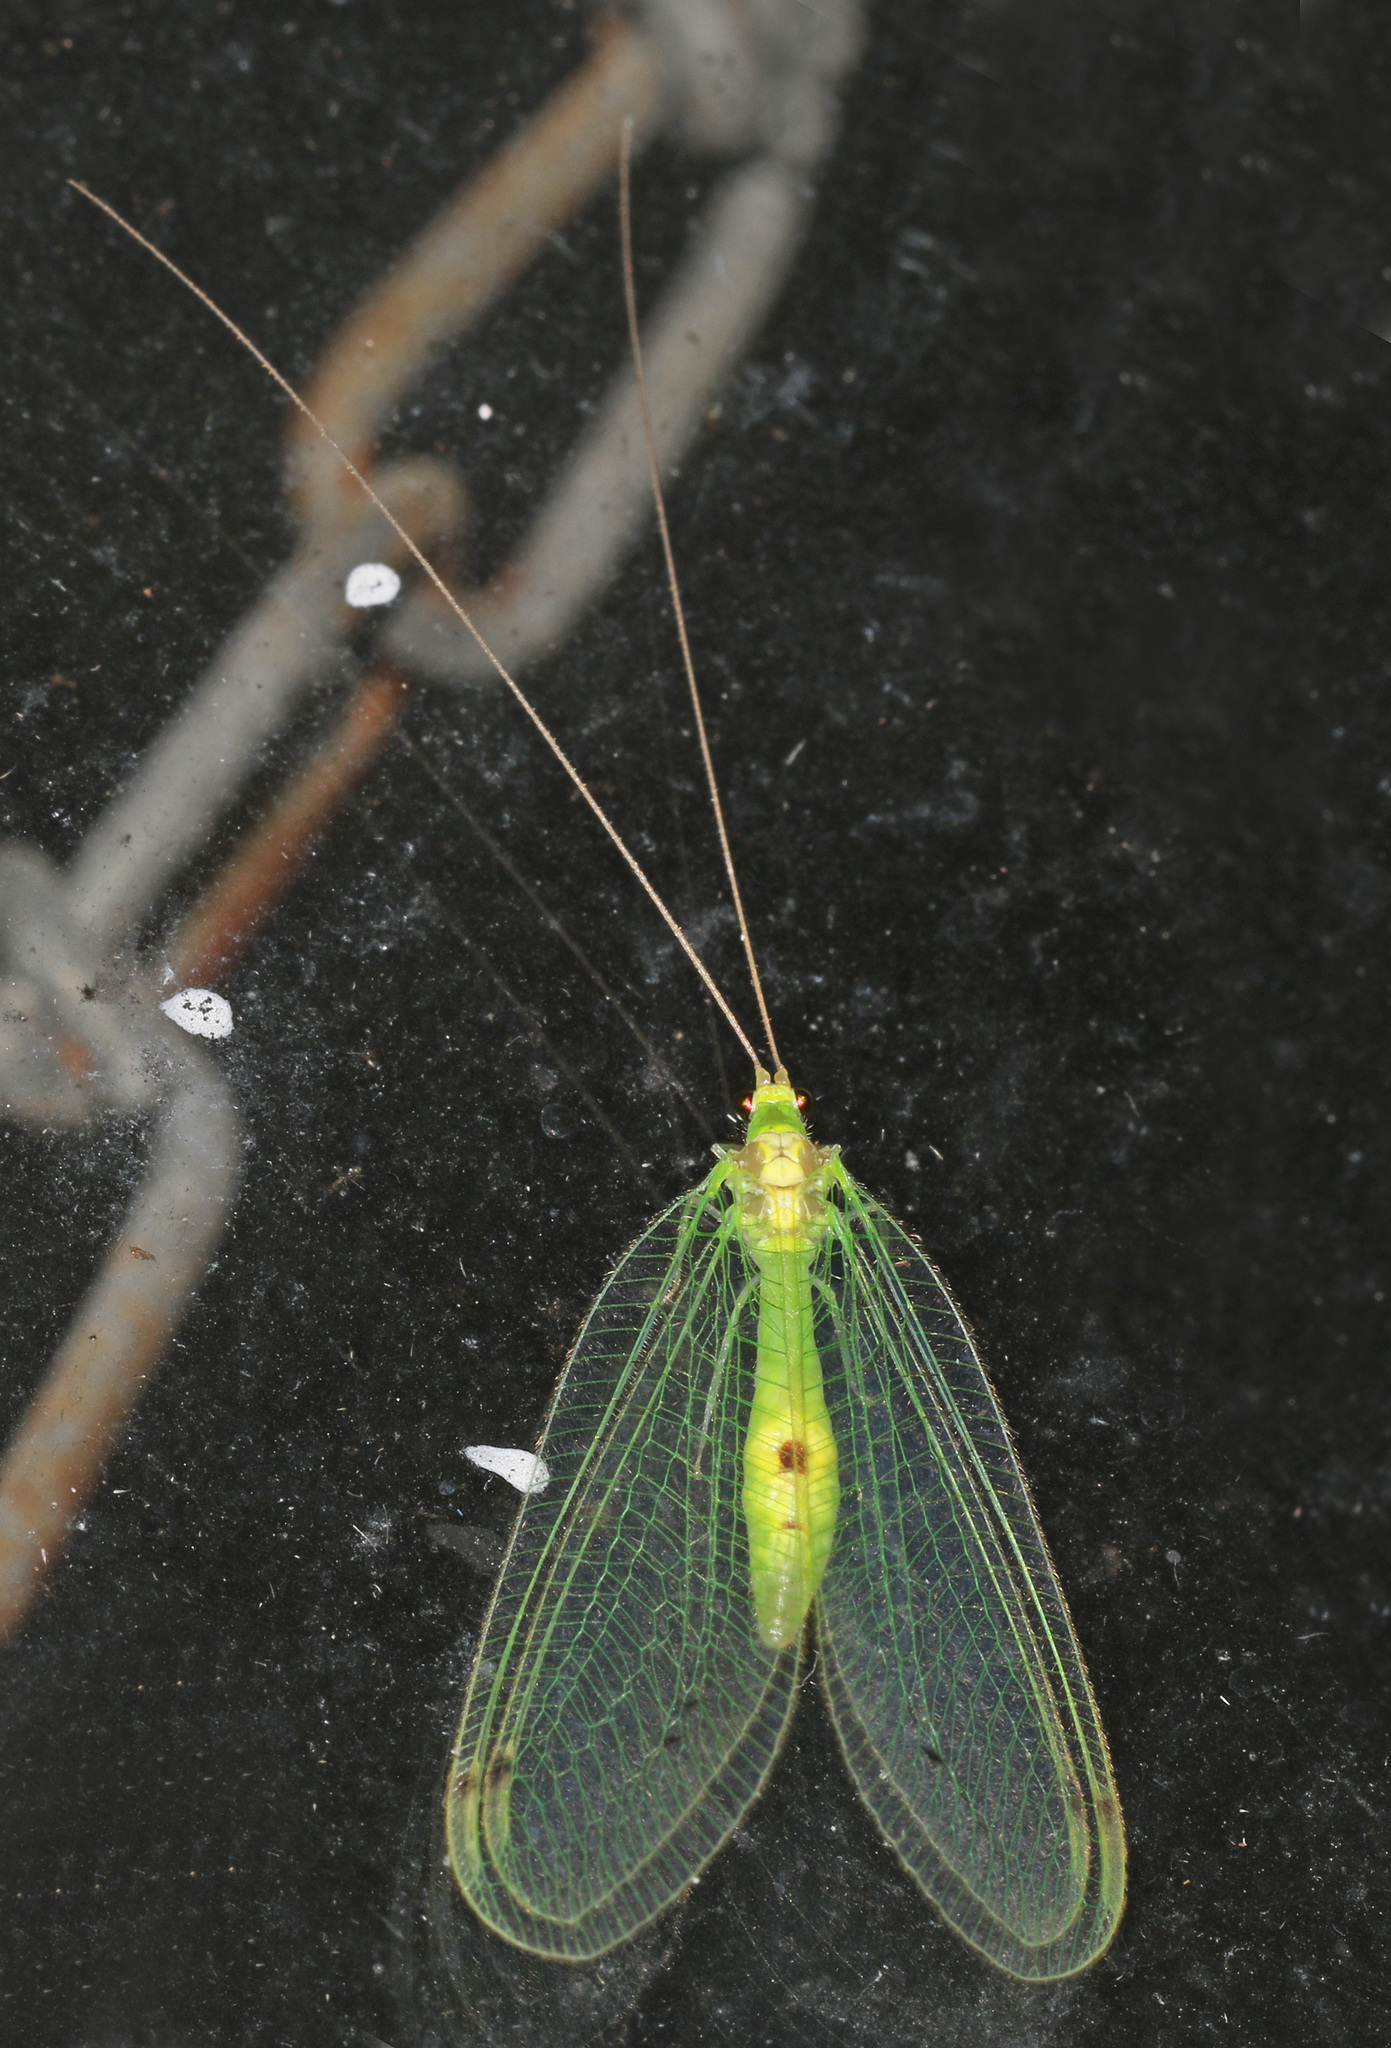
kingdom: Animalia
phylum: Arthropoda
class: Insecta
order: Neuroptera
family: Chrysopidae
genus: Leucochrysa
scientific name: Leucochrysa insularis
